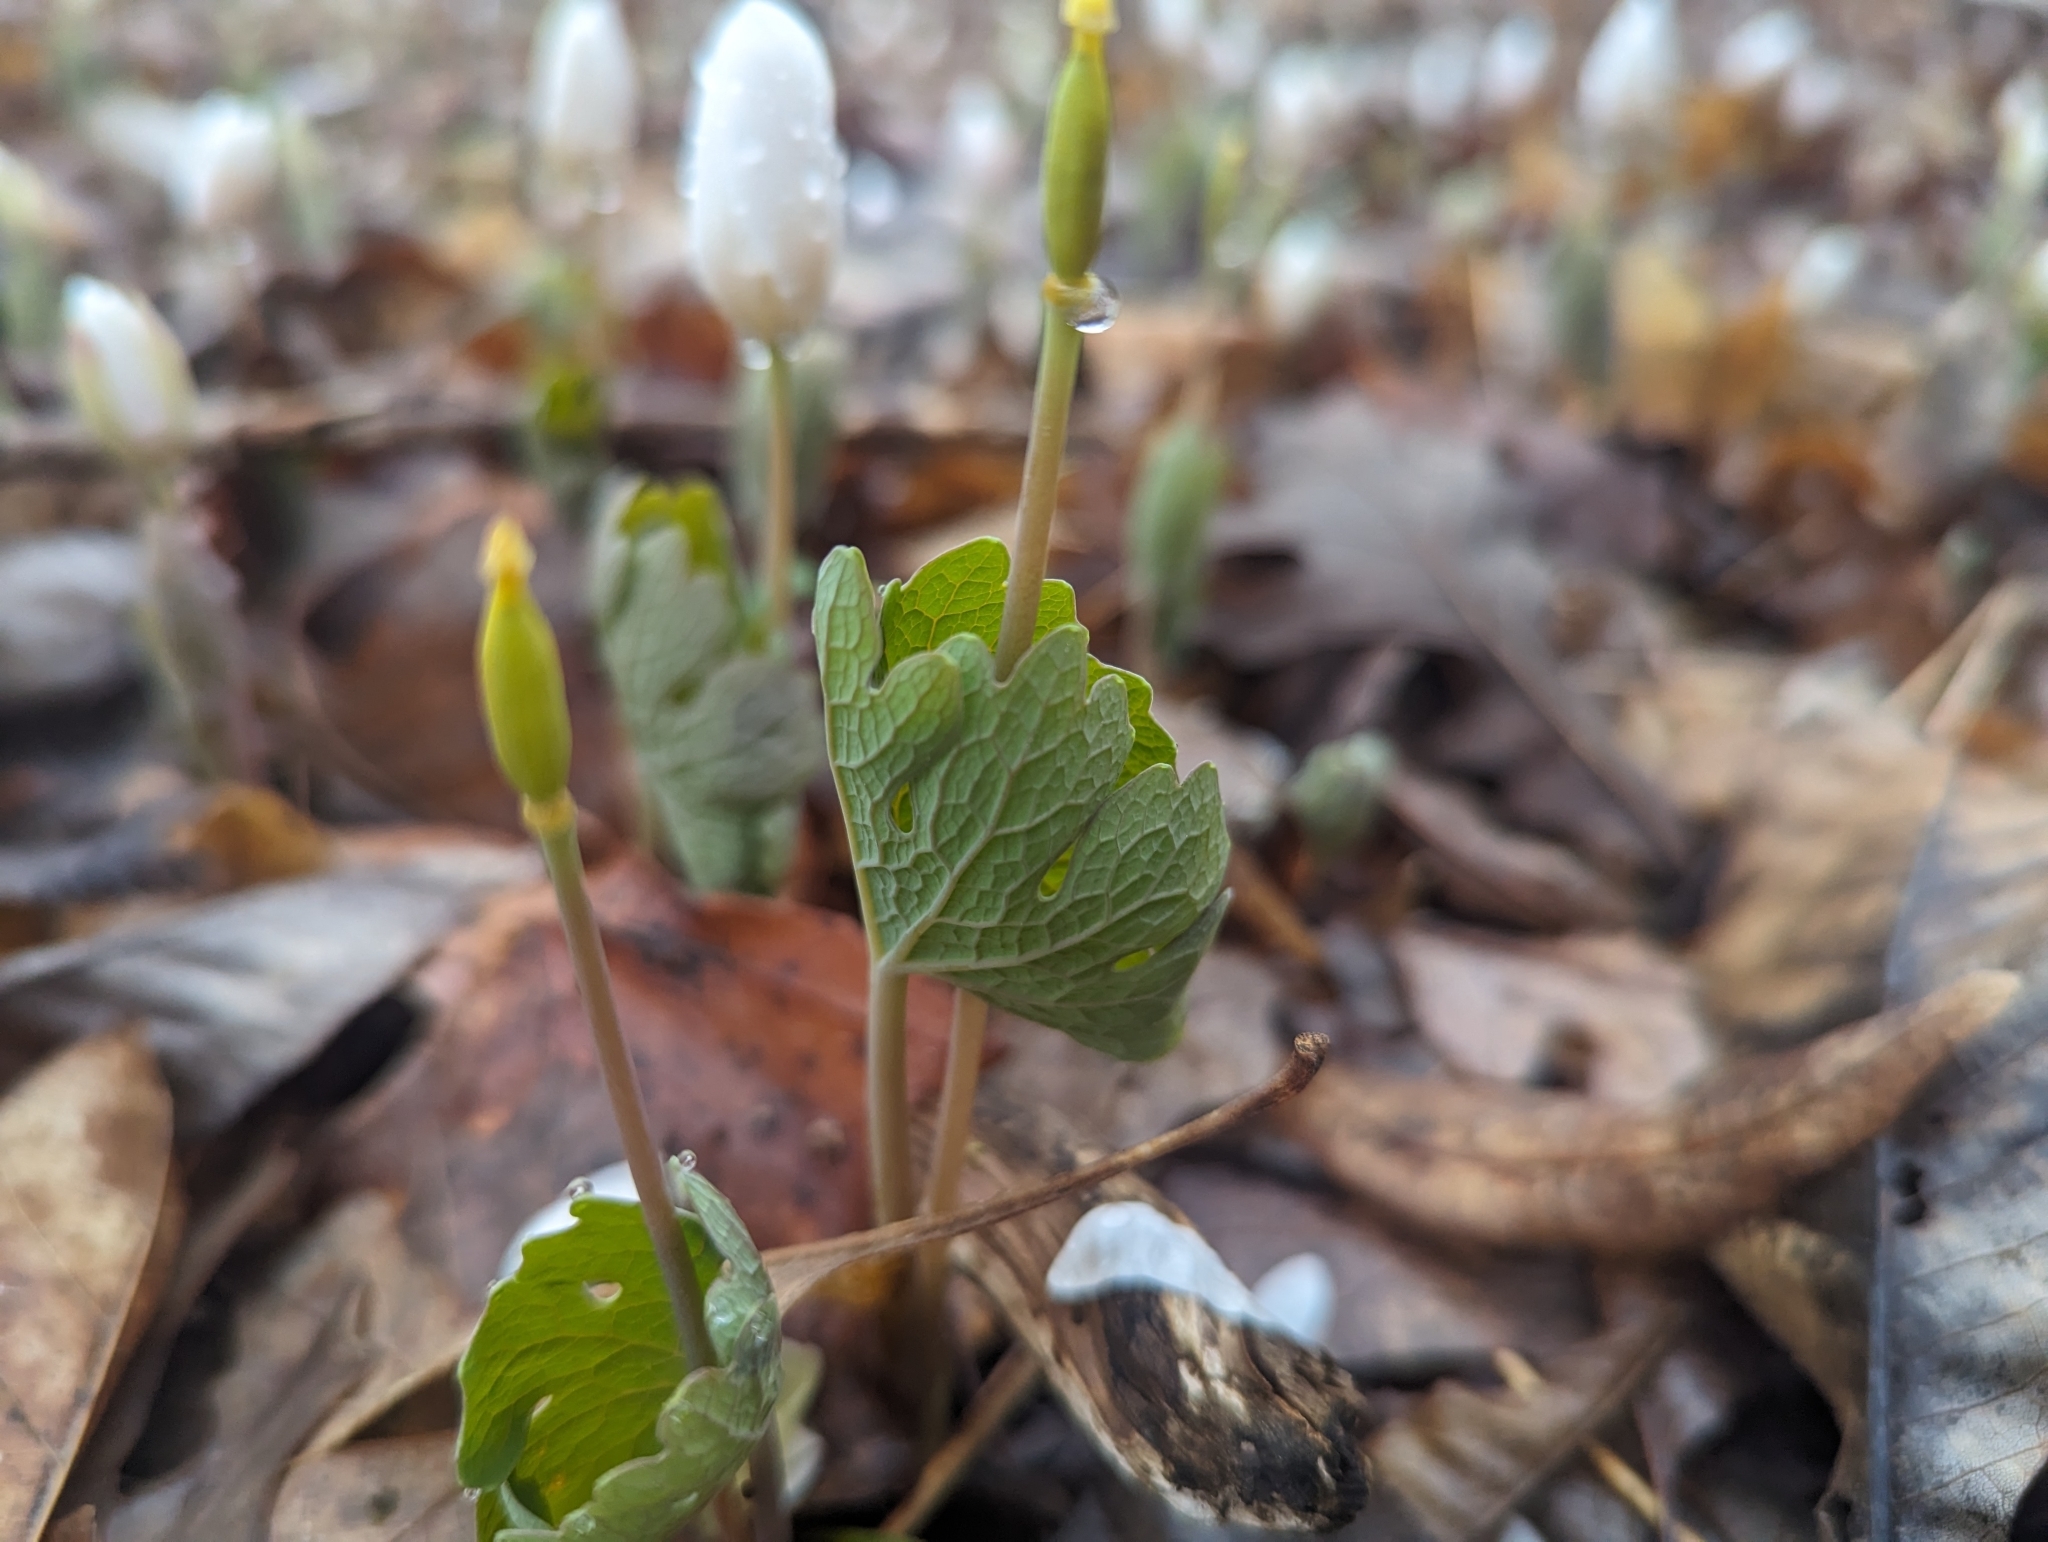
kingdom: Plantae
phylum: Tracheophyta
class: Magnoliopsida
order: Ranunculales
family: Papaveraceae
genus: Sanguinaria
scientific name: Sanguinaria canadensis
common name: Bloodroot
